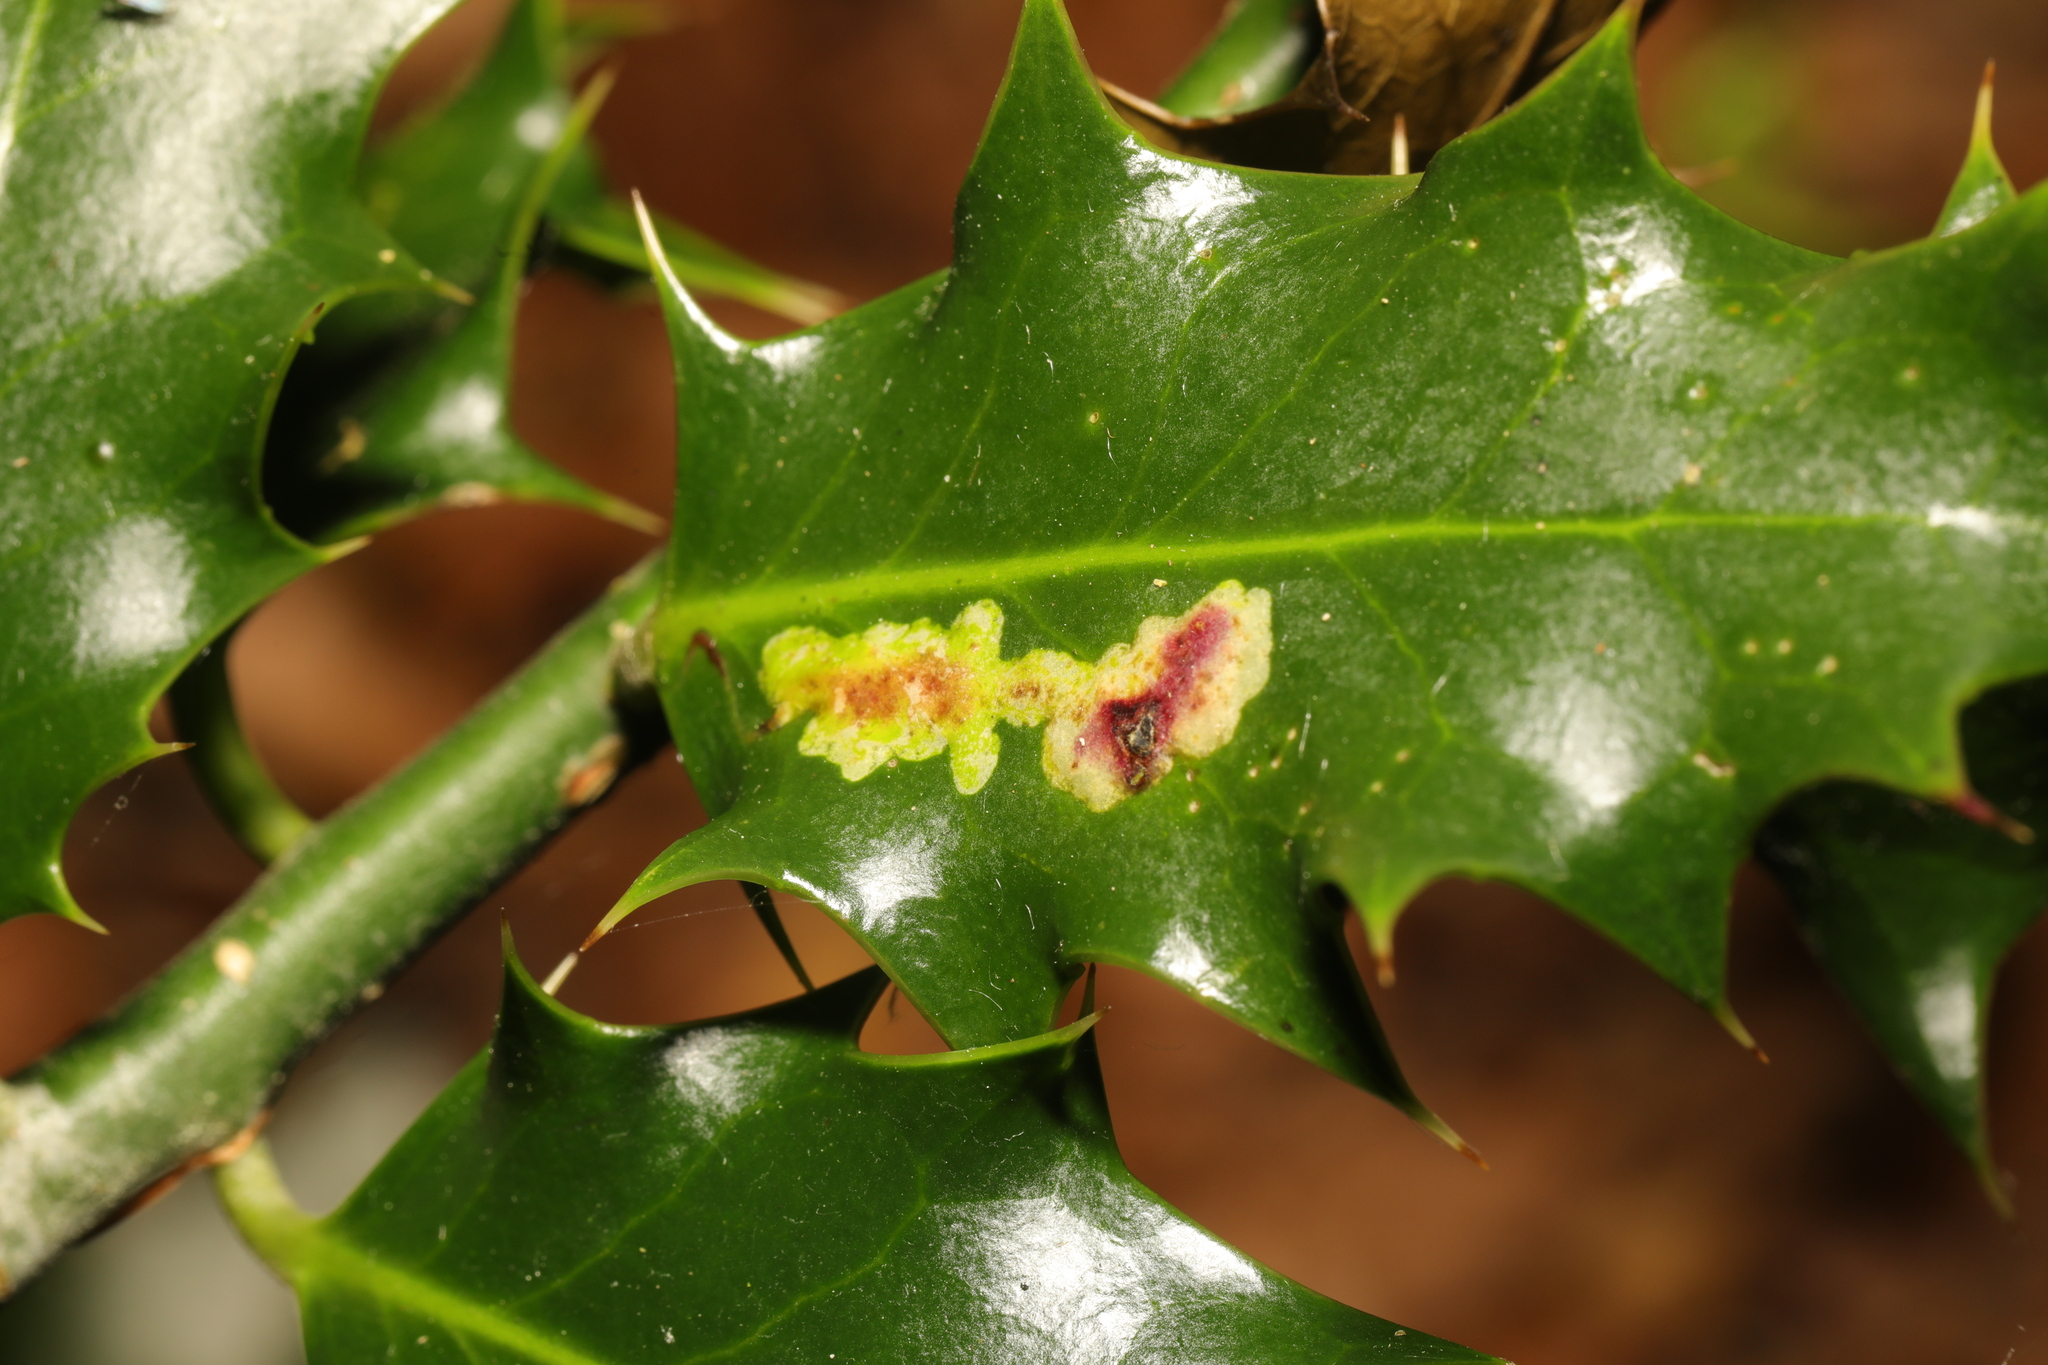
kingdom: Animalia
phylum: Arthropoda
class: Insecta
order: Diptera
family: Agromyzidae
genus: Phytomyza
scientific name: Phytomyza ilicis
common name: Holly leafminer
